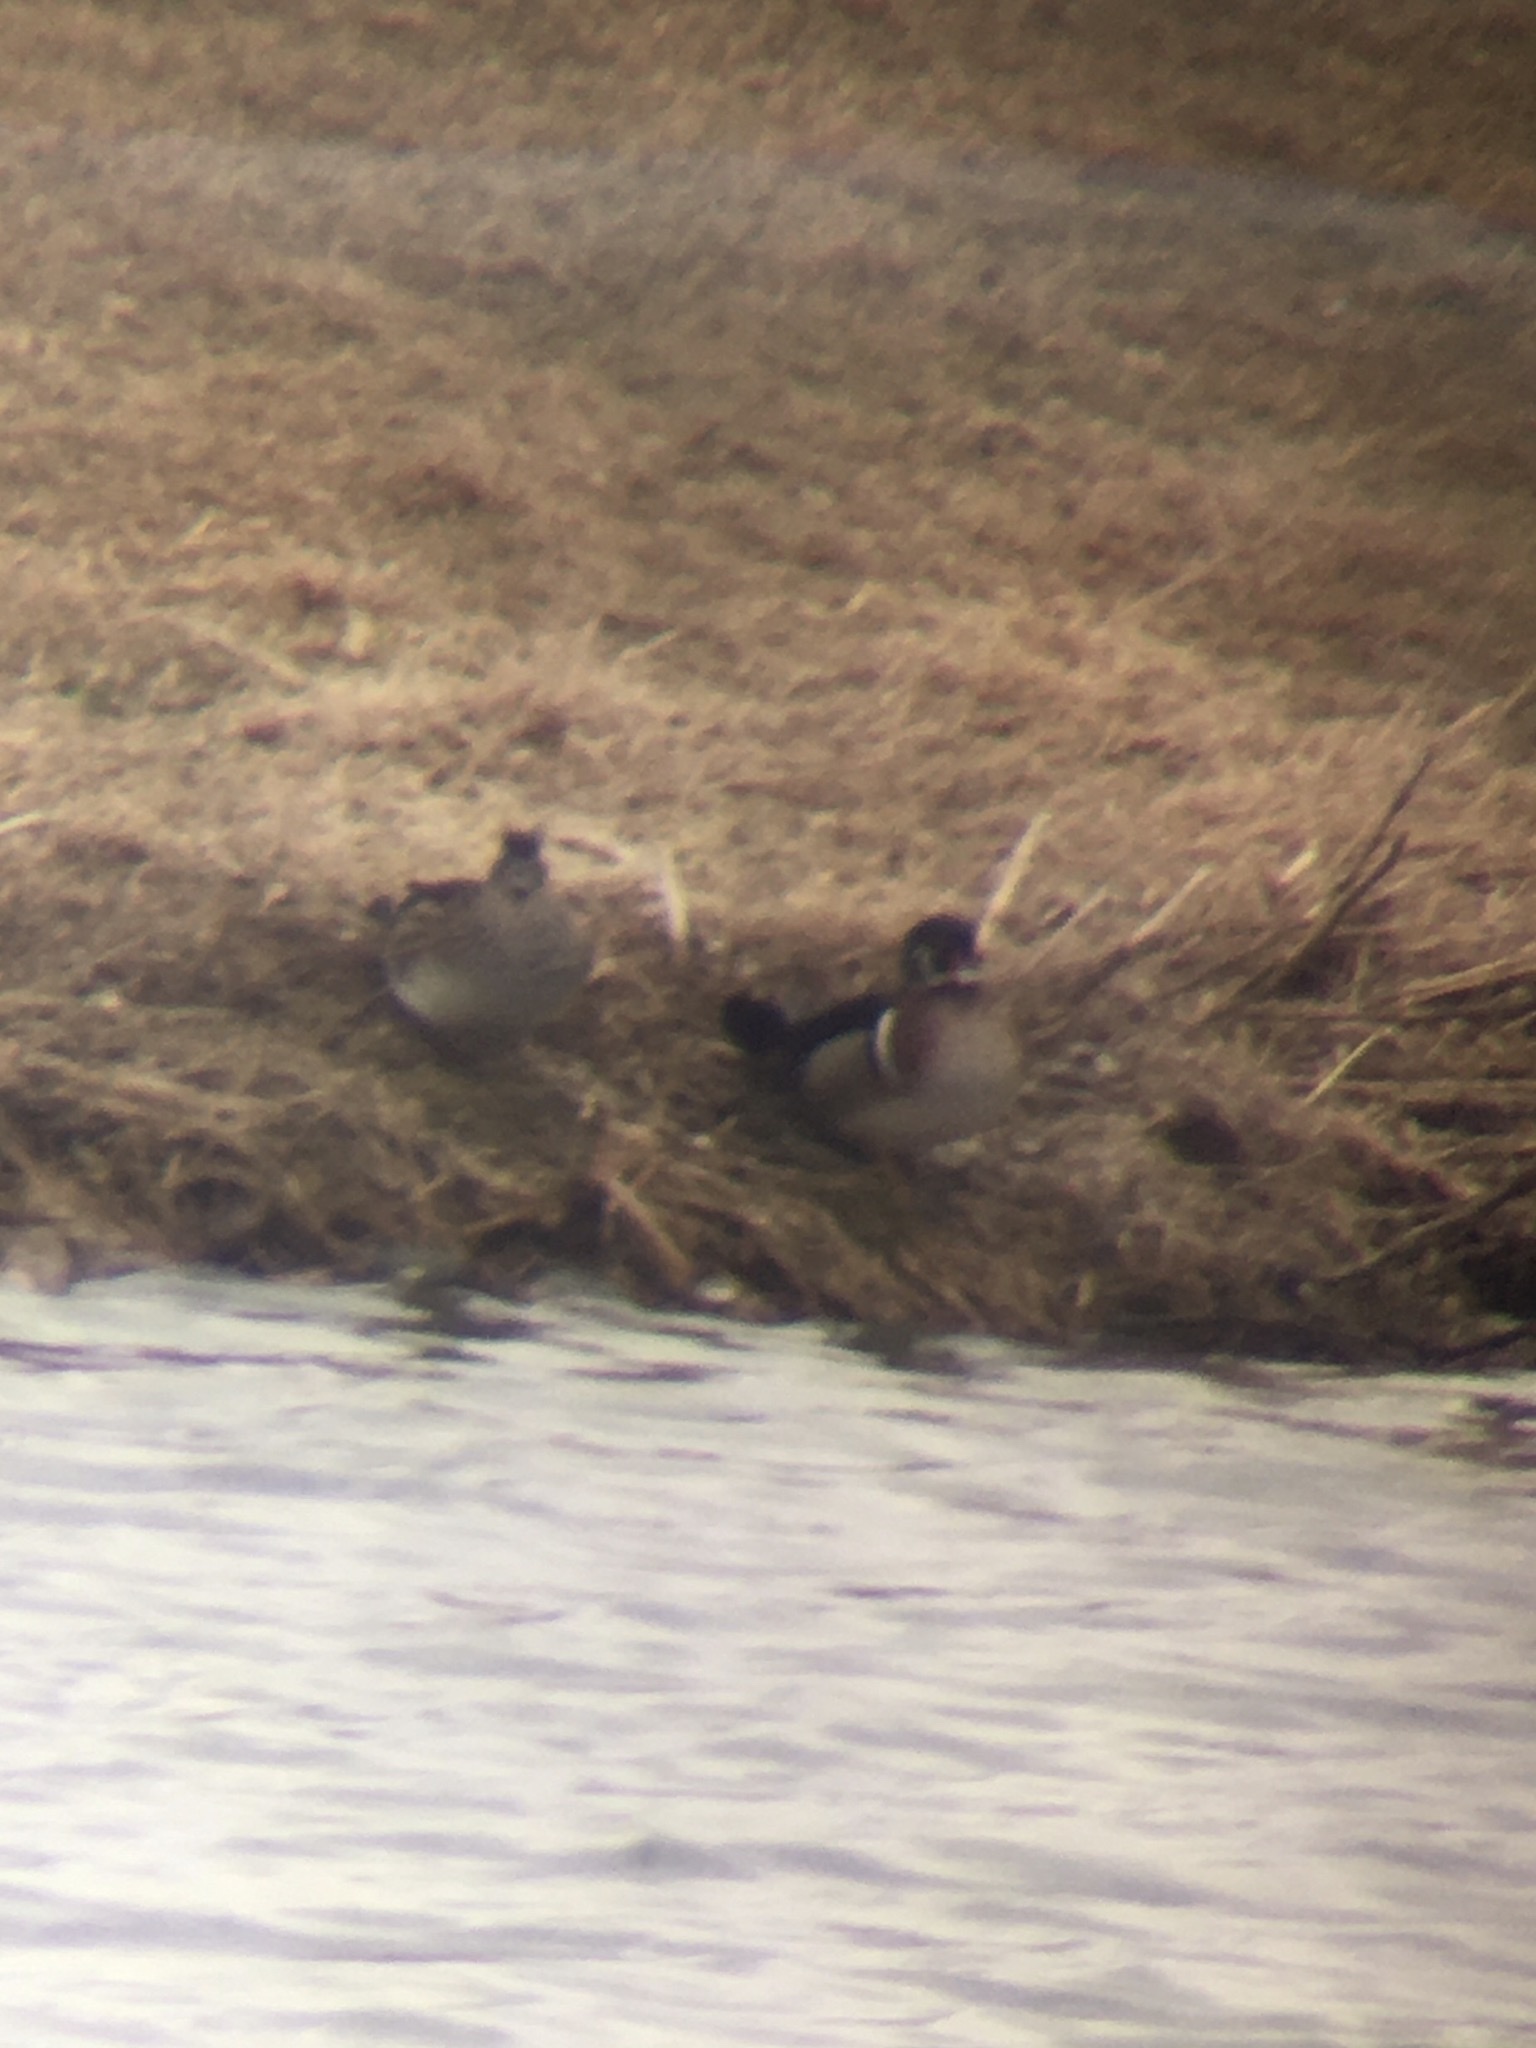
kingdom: Animalia
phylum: Chordata
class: Aves
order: Anseriformes
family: Anatidae
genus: Aix
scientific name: Aix sponsa
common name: Wood duck
